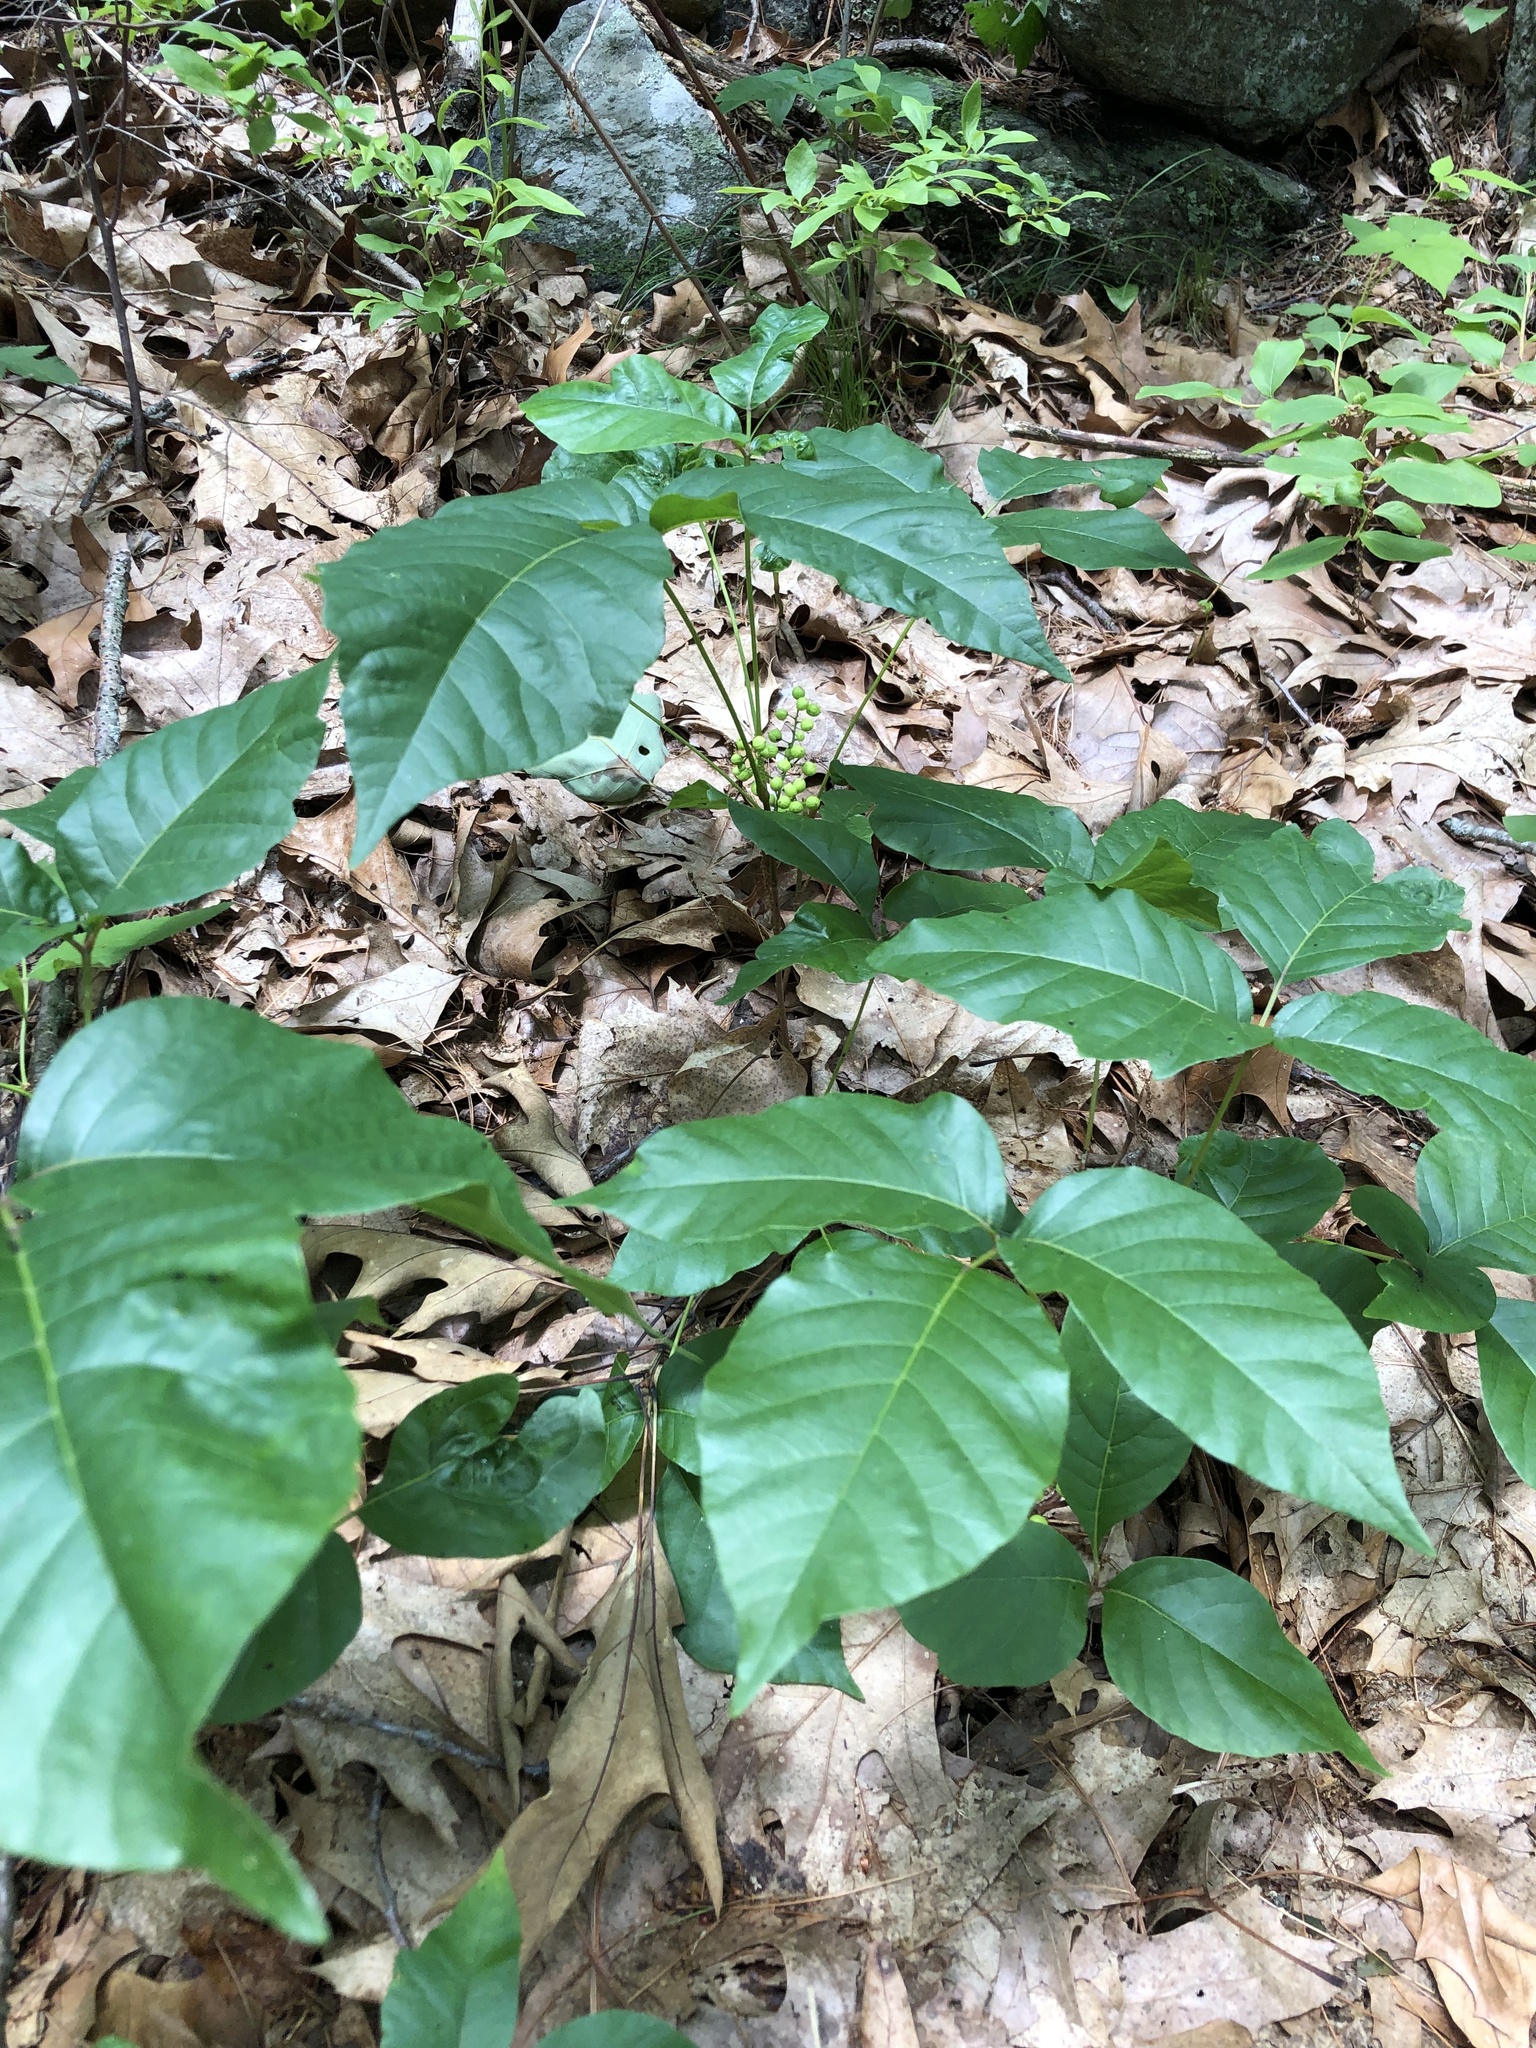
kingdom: Plantae
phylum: Tracheophyta
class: Magnoliopsida
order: Sapindales
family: Anacardiaceae
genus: Toxicodendron
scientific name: Toxicodendron radicans
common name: Poison ivy
